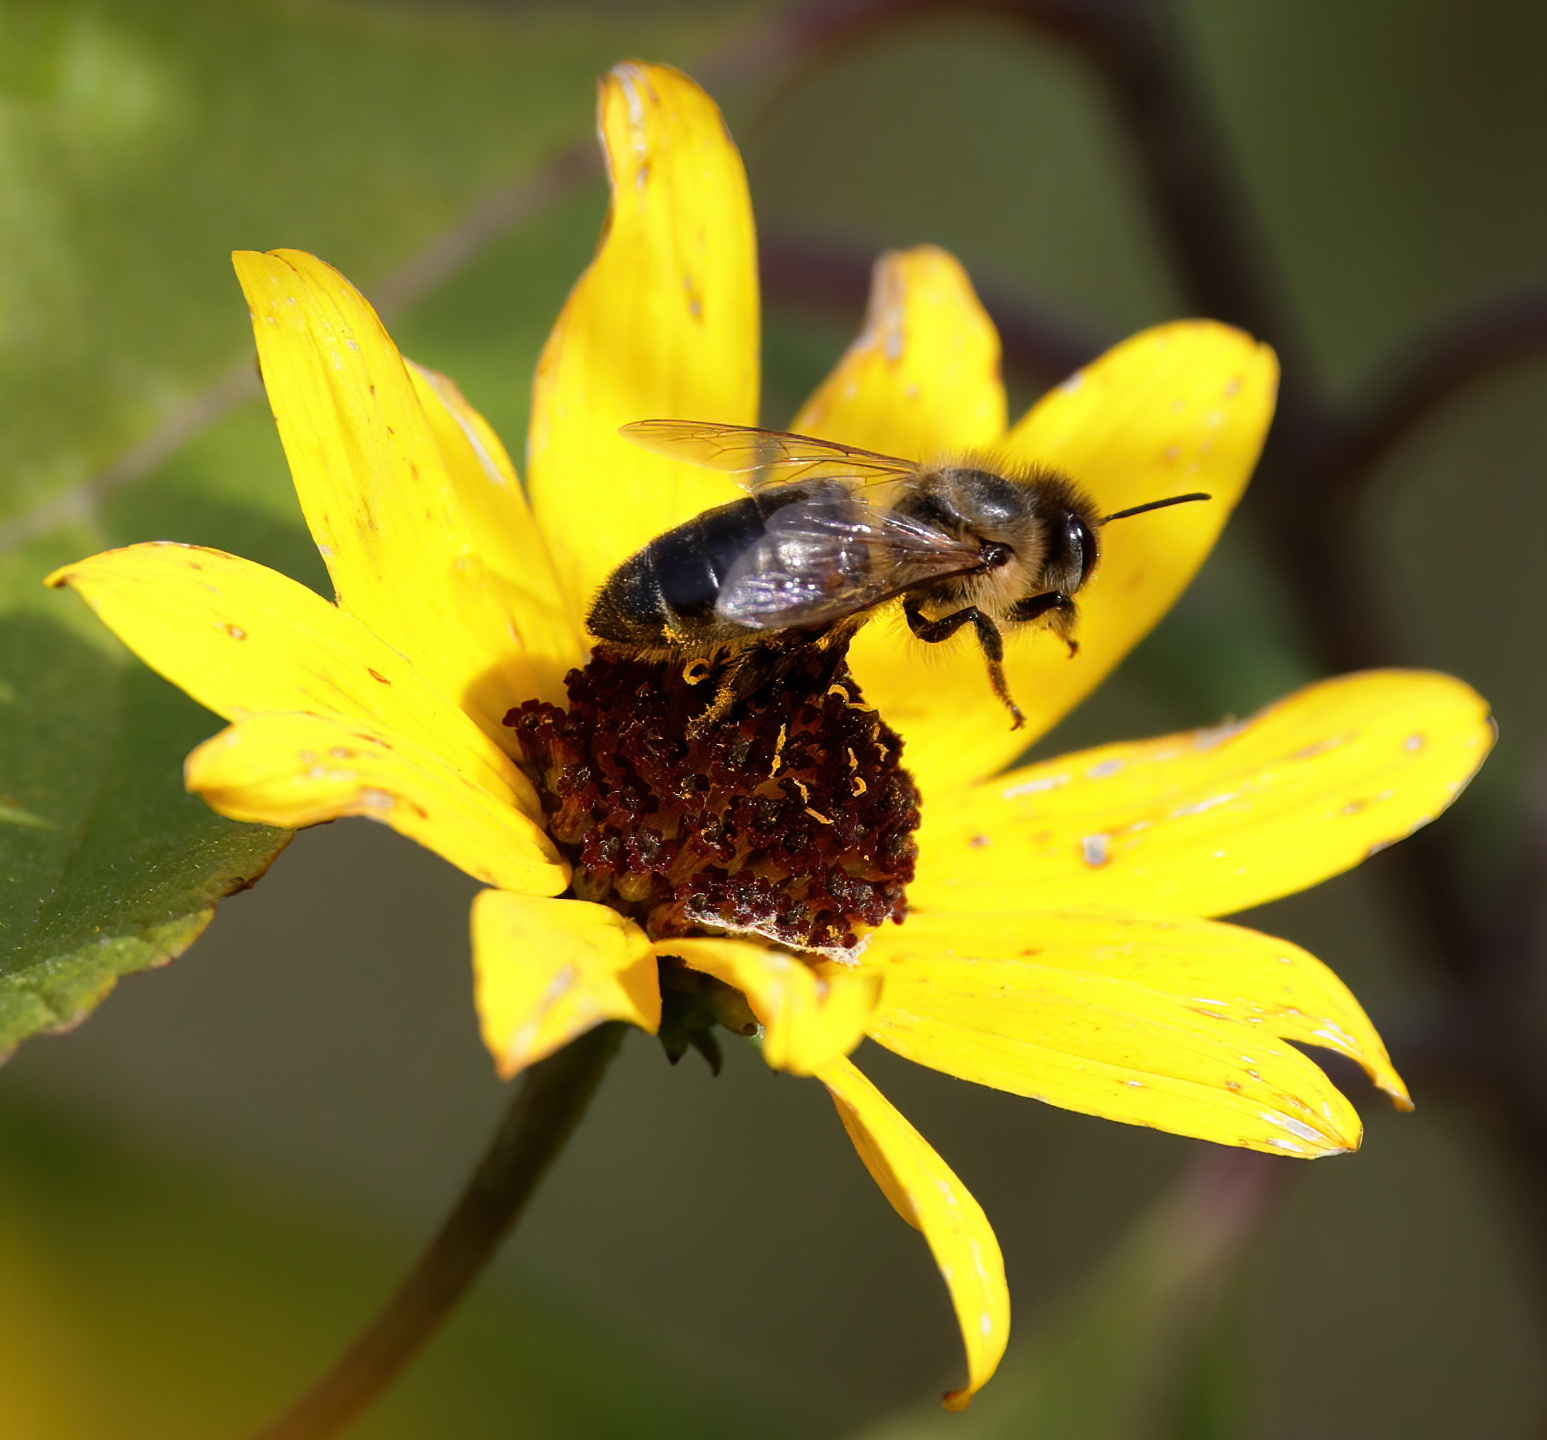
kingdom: Animalia
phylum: Arthropoda
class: Insecta
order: Hymenoptera
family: Apidae
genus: Apis
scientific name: Apis mellifera
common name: Honey bee
